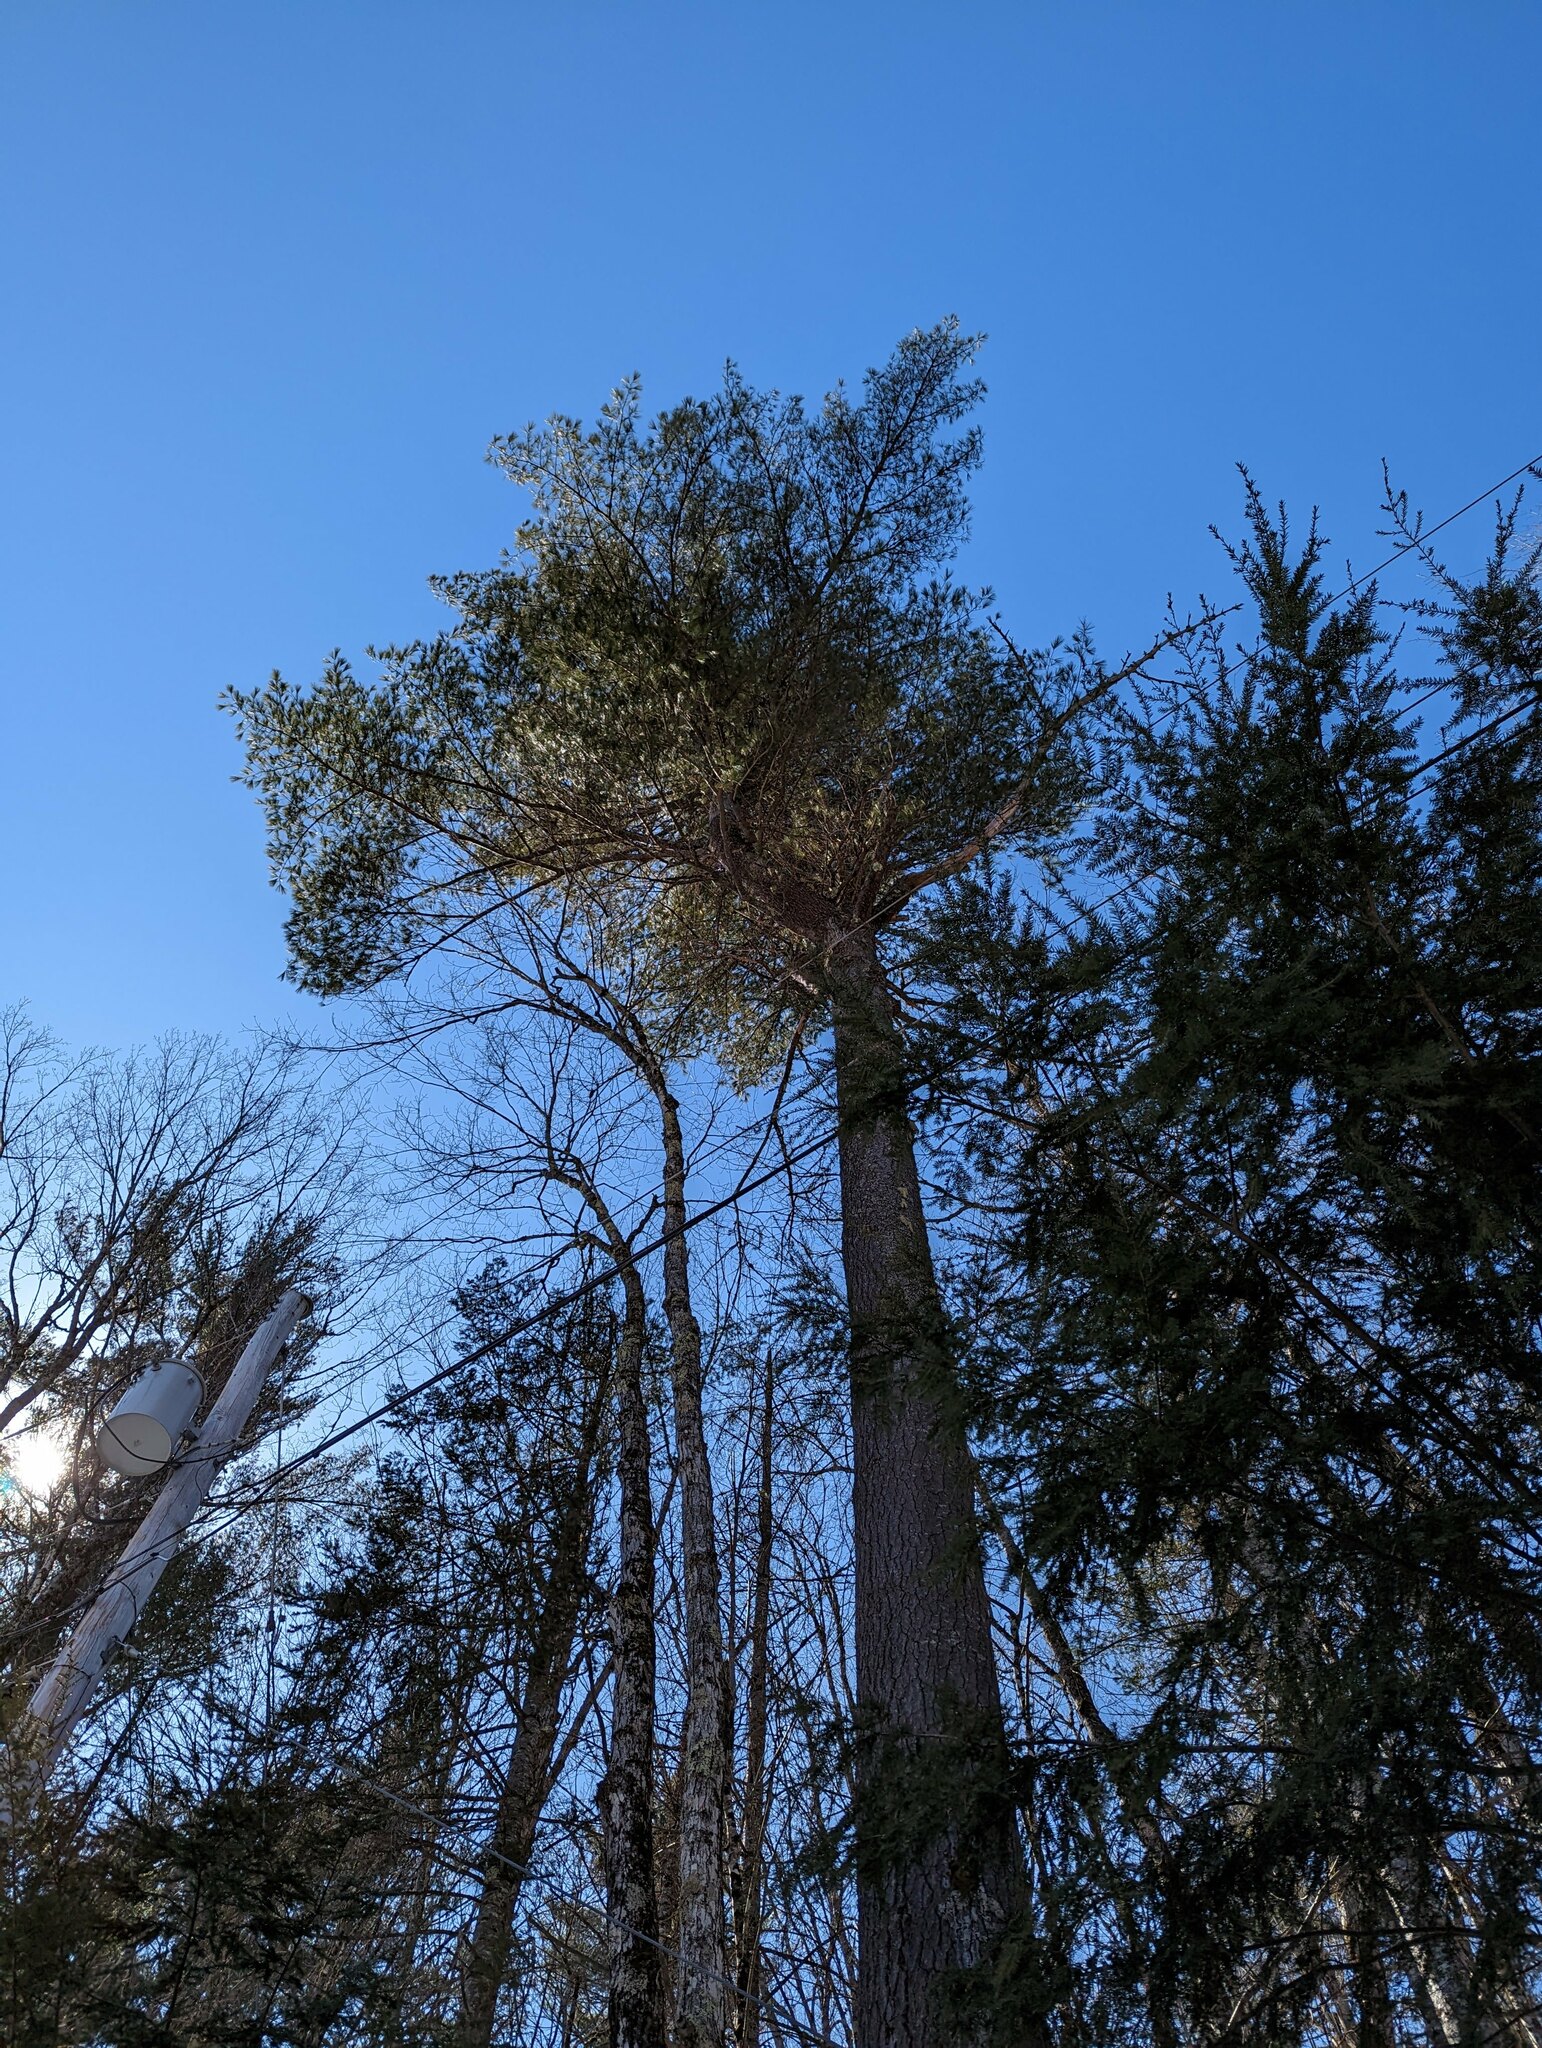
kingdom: Plantae
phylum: Tracheophyta
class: Pinopsida
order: Pinales
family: Pinaceae
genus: Pinus
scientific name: Pinus strobus
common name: Weymouth pine
